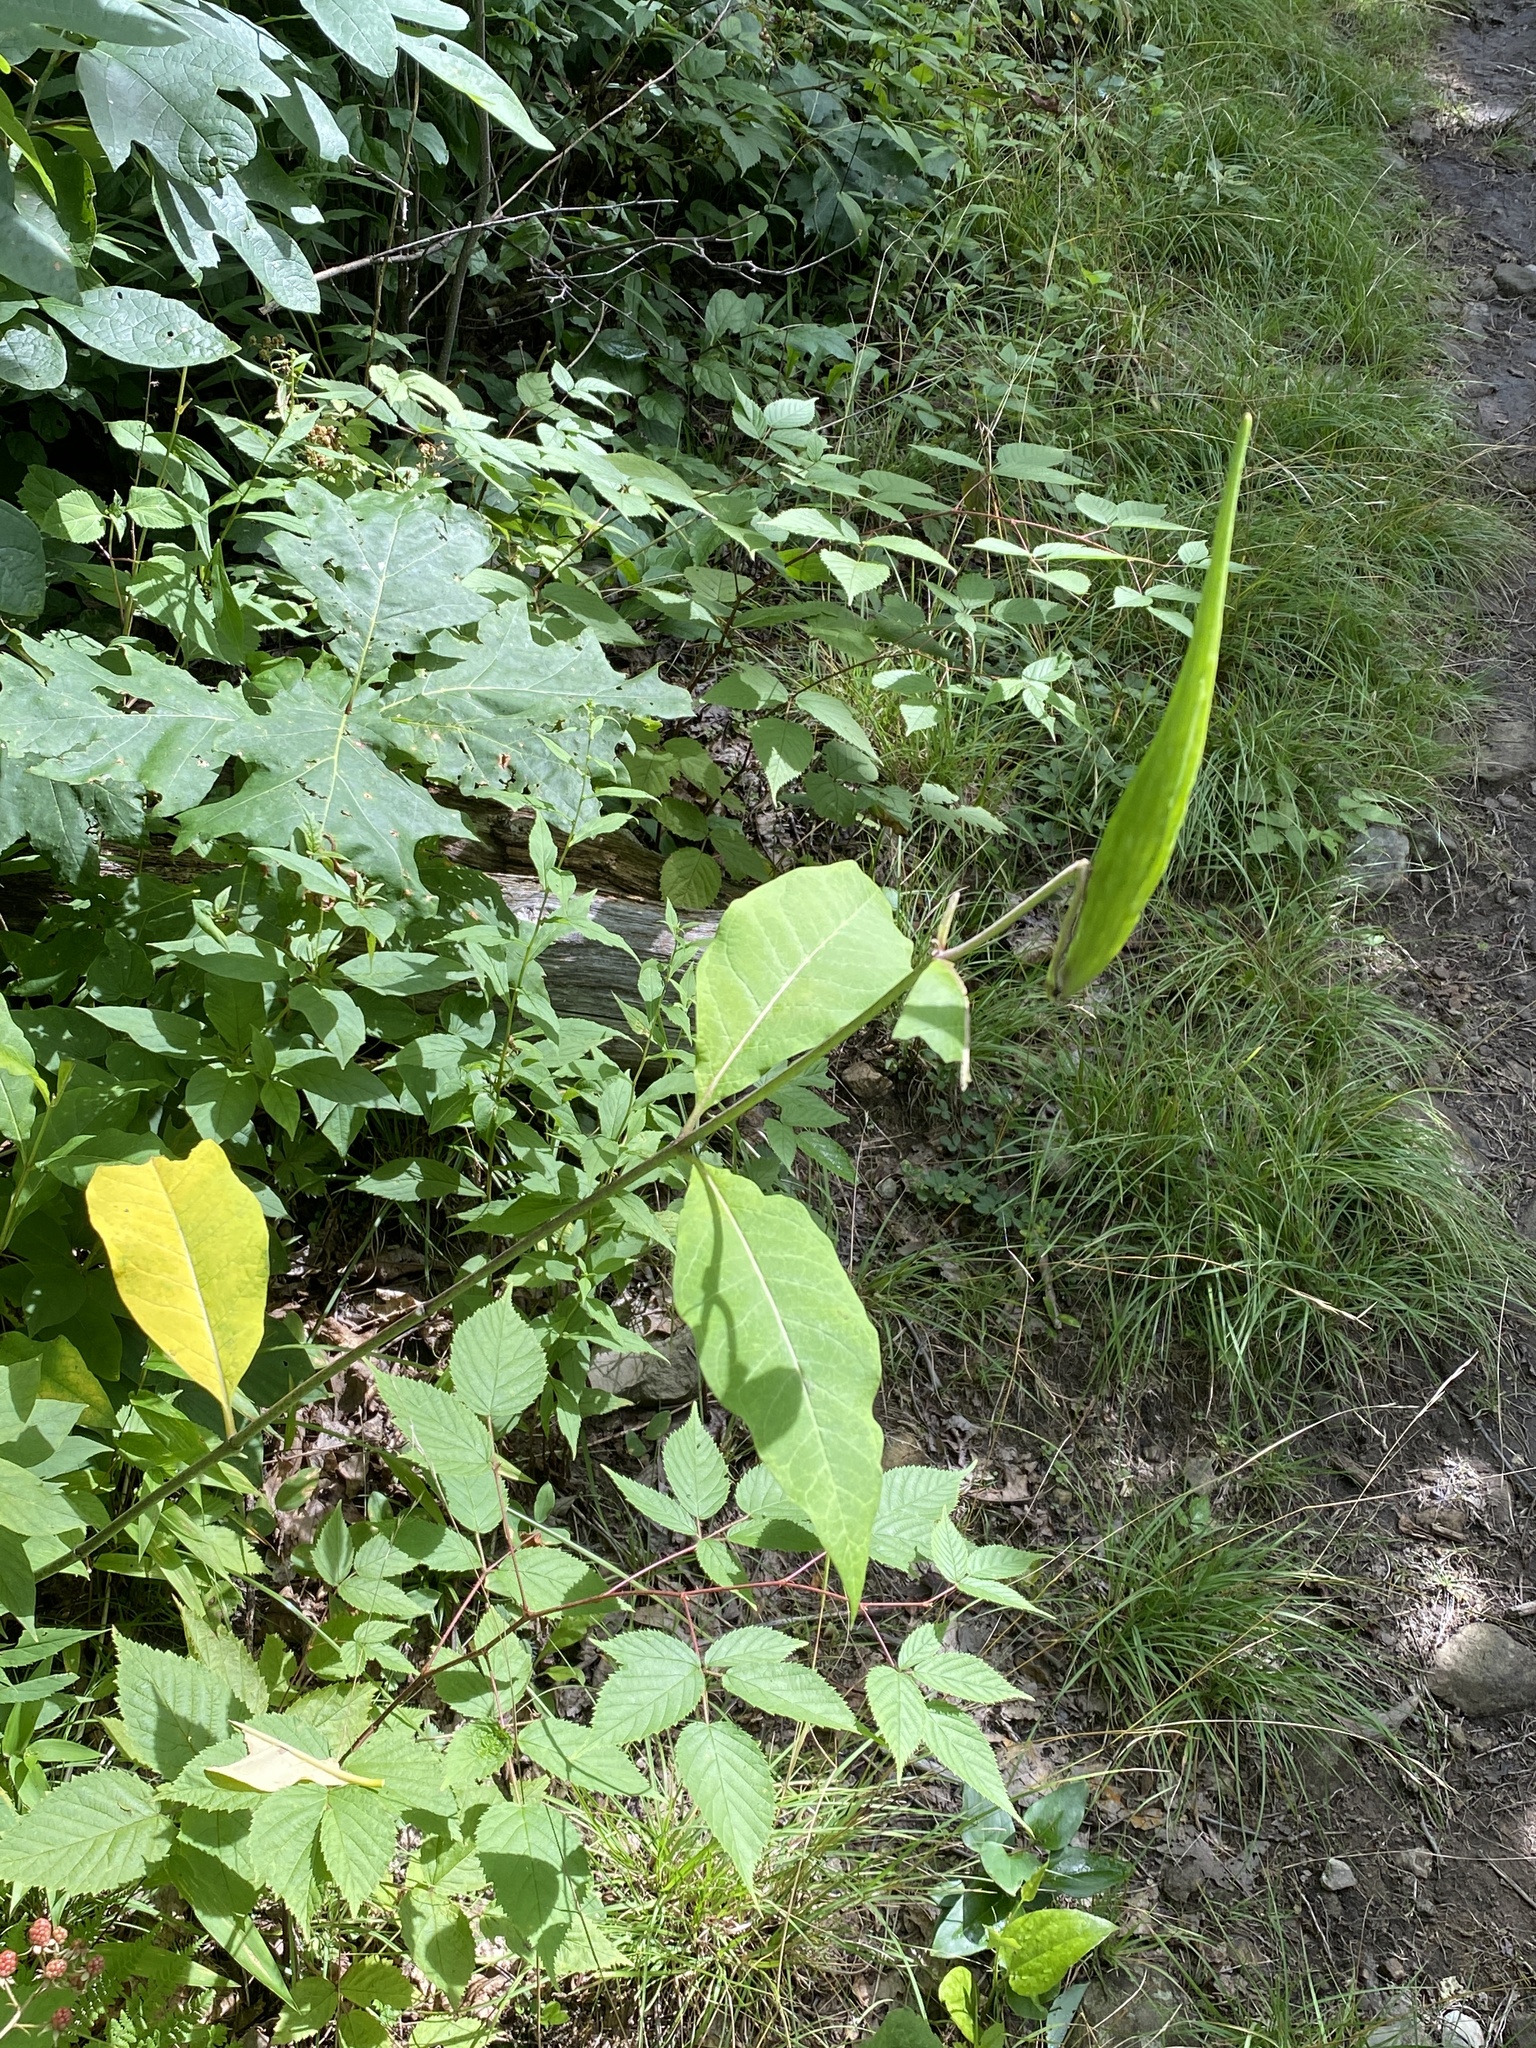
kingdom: Plantae
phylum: Tracheophyta
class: Magnoliopsida
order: Gentianales
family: Apocynaceae
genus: Asclepias
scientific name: Asclepias exaltata
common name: Poke milkweed
